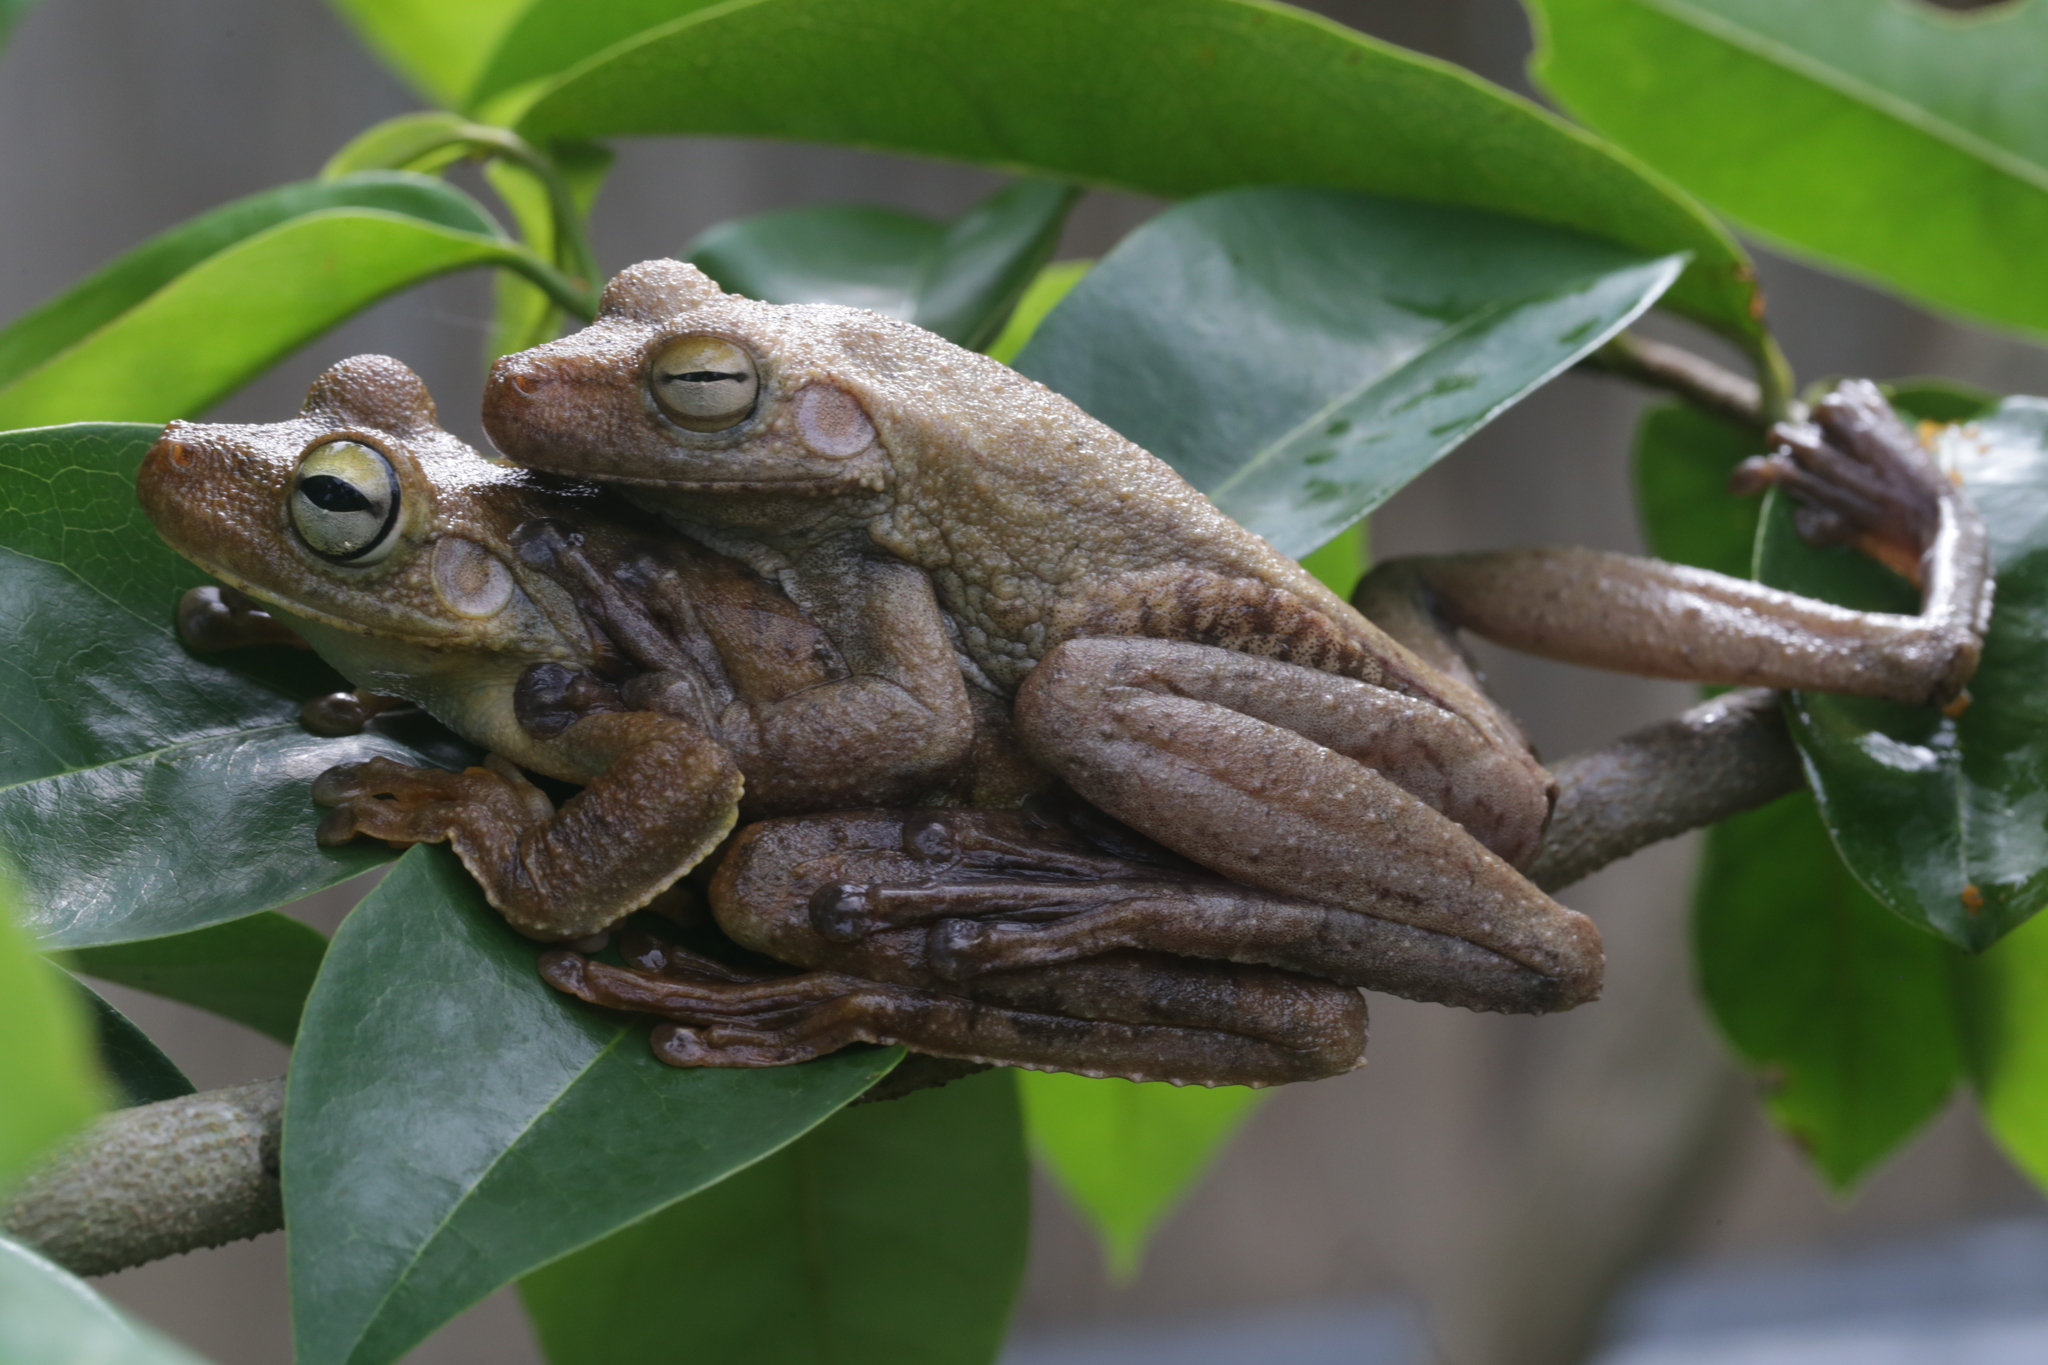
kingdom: Animalia
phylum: Chordata
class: Amphibia
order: Anura
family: Hylidae
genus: Boana
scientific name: Boana rosenbergi
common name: Rosenberg´s gladiator treefrog
